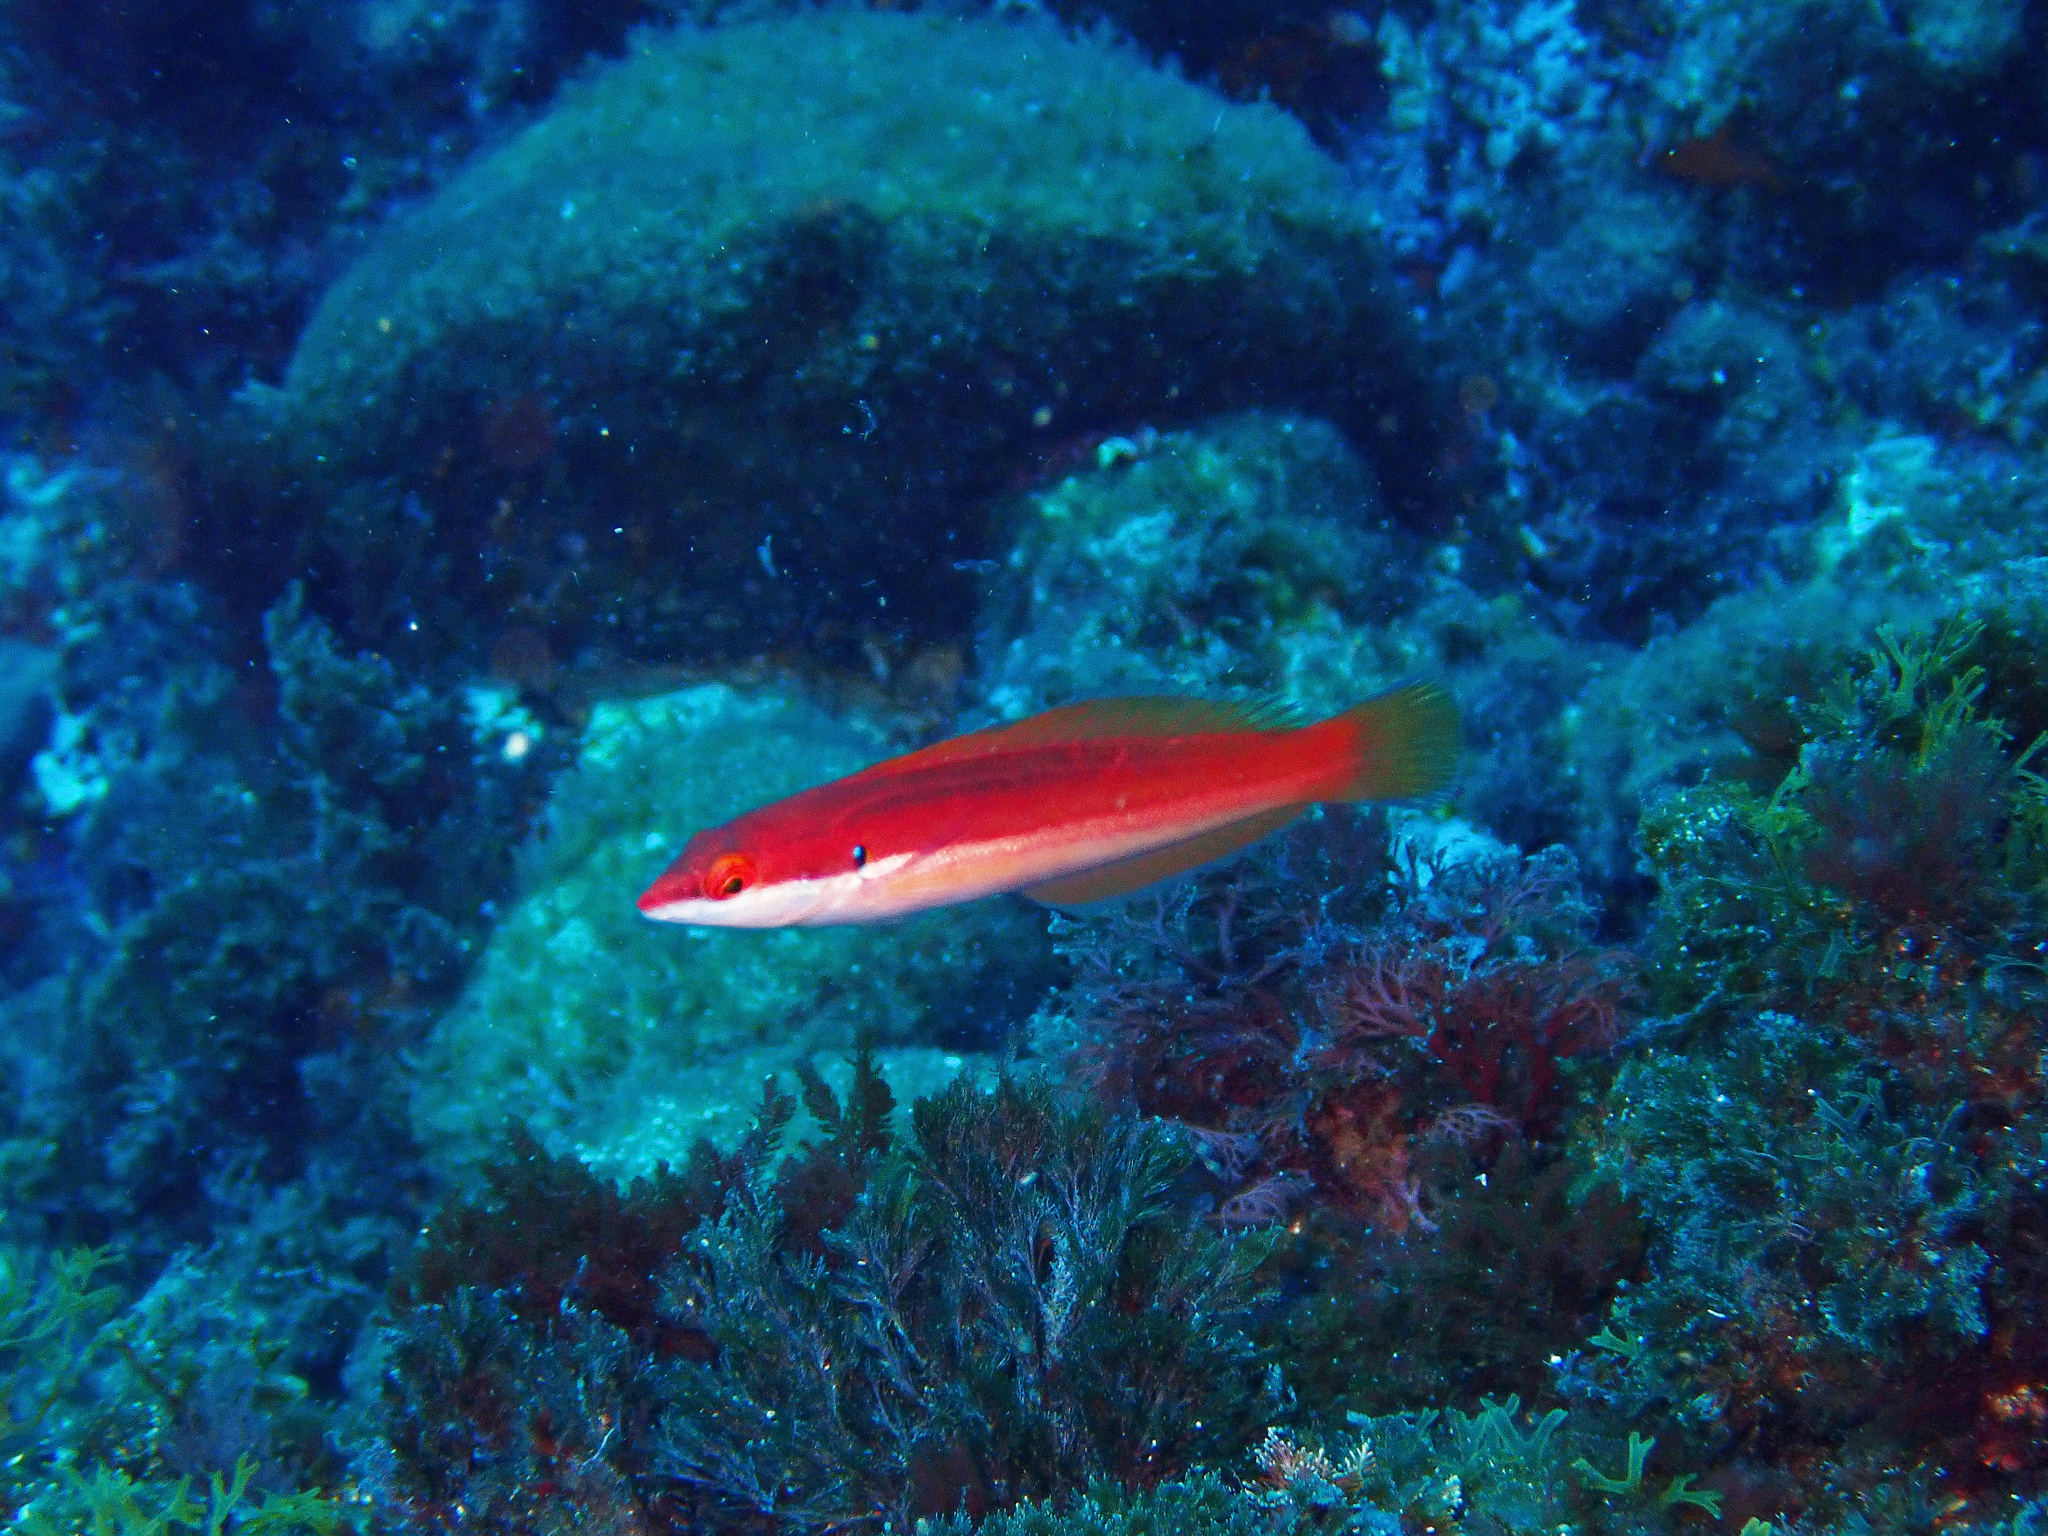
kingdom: Animalia
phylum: Chordata
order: Perciformes
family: Labridae
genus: Coris
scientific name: Coris julis
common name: Rainbow wrasse
